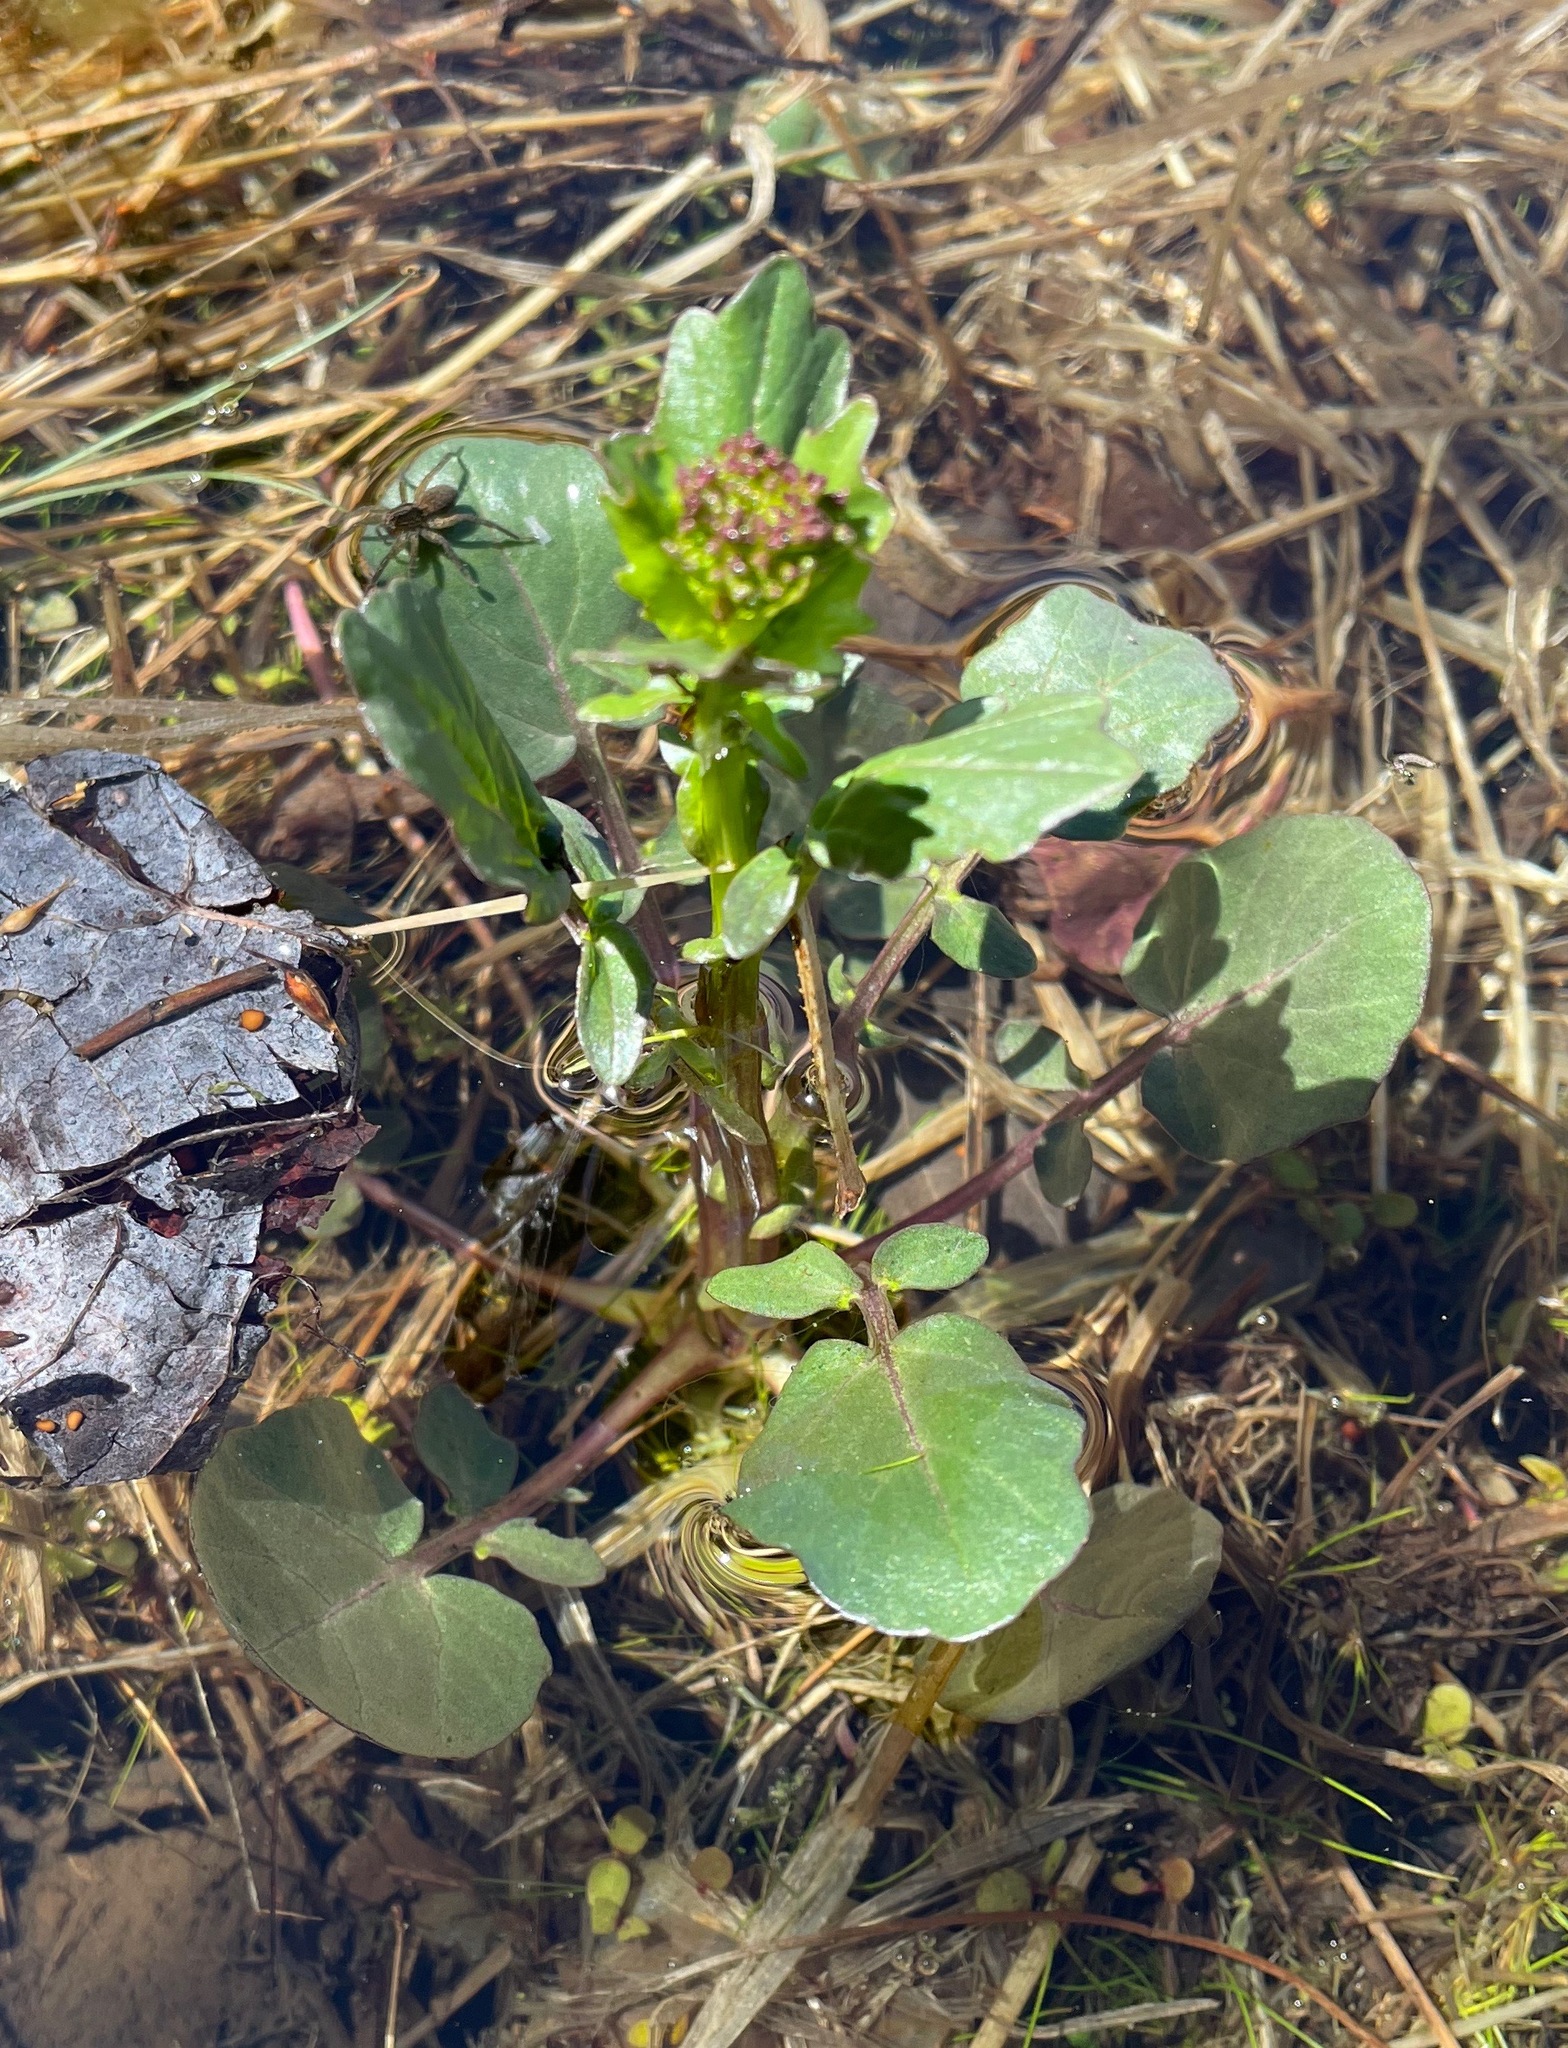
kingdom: Plantae
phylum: Tracheophyta
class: Magnoliopsida
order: Brassicales
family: Brassicaceae
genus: Barbarea
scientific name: Barbarea vulgaris
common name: Cressy-greens
